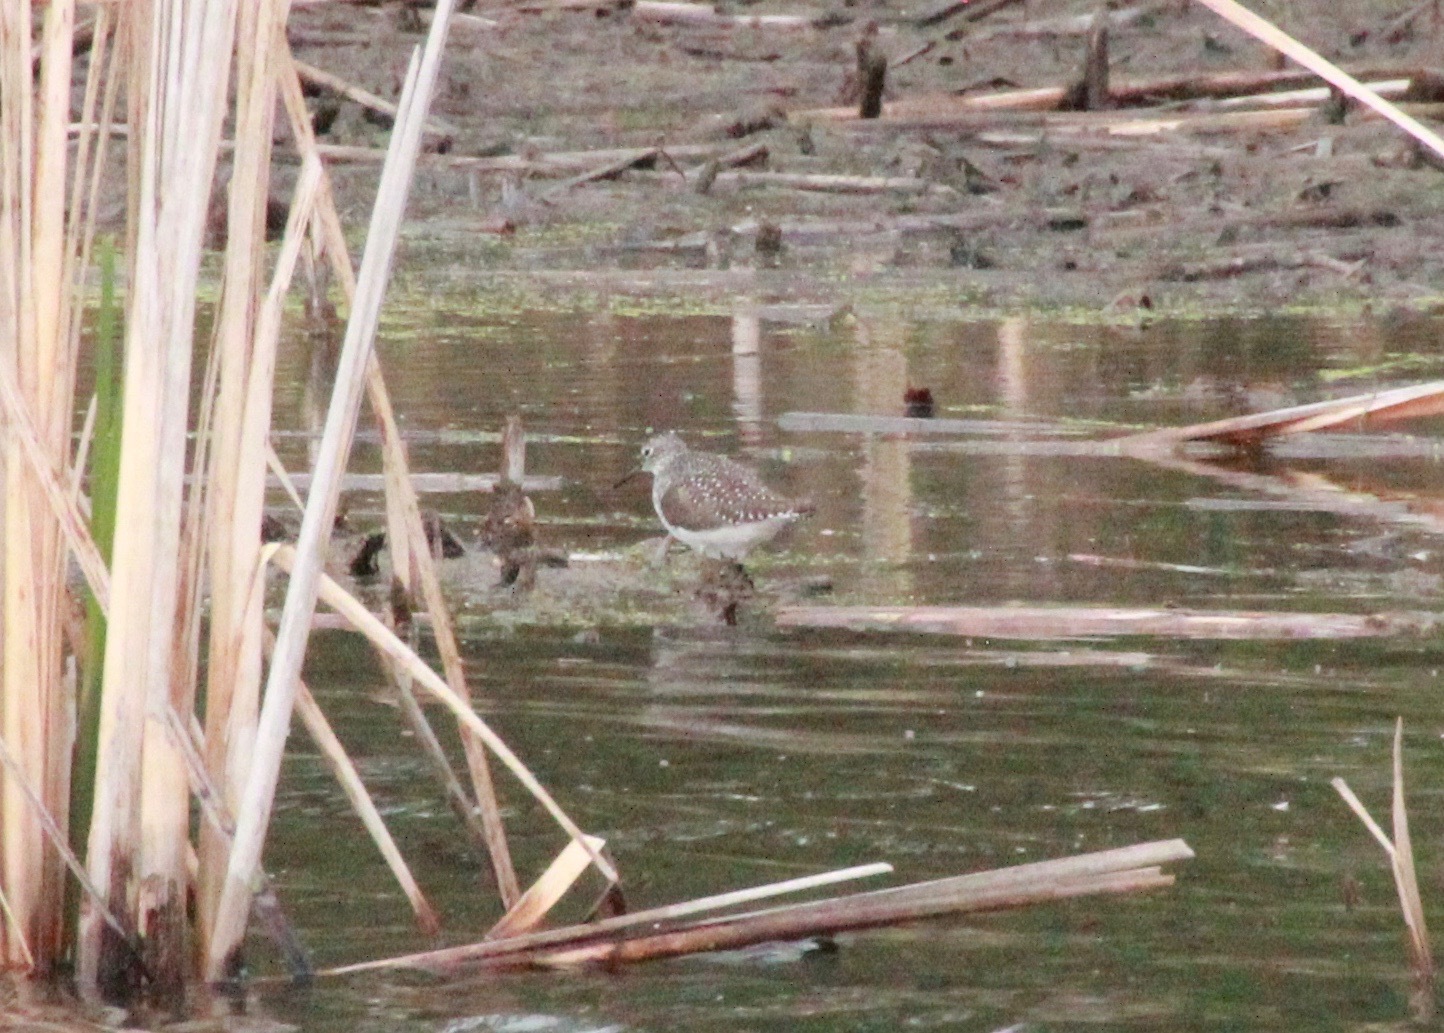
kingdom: Animalia
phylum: Chordata
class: Aves
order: Charadriiformes
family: Scolopacidae
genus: Tringa
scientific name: Tringa solitaria
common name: Solitary sandpiper
